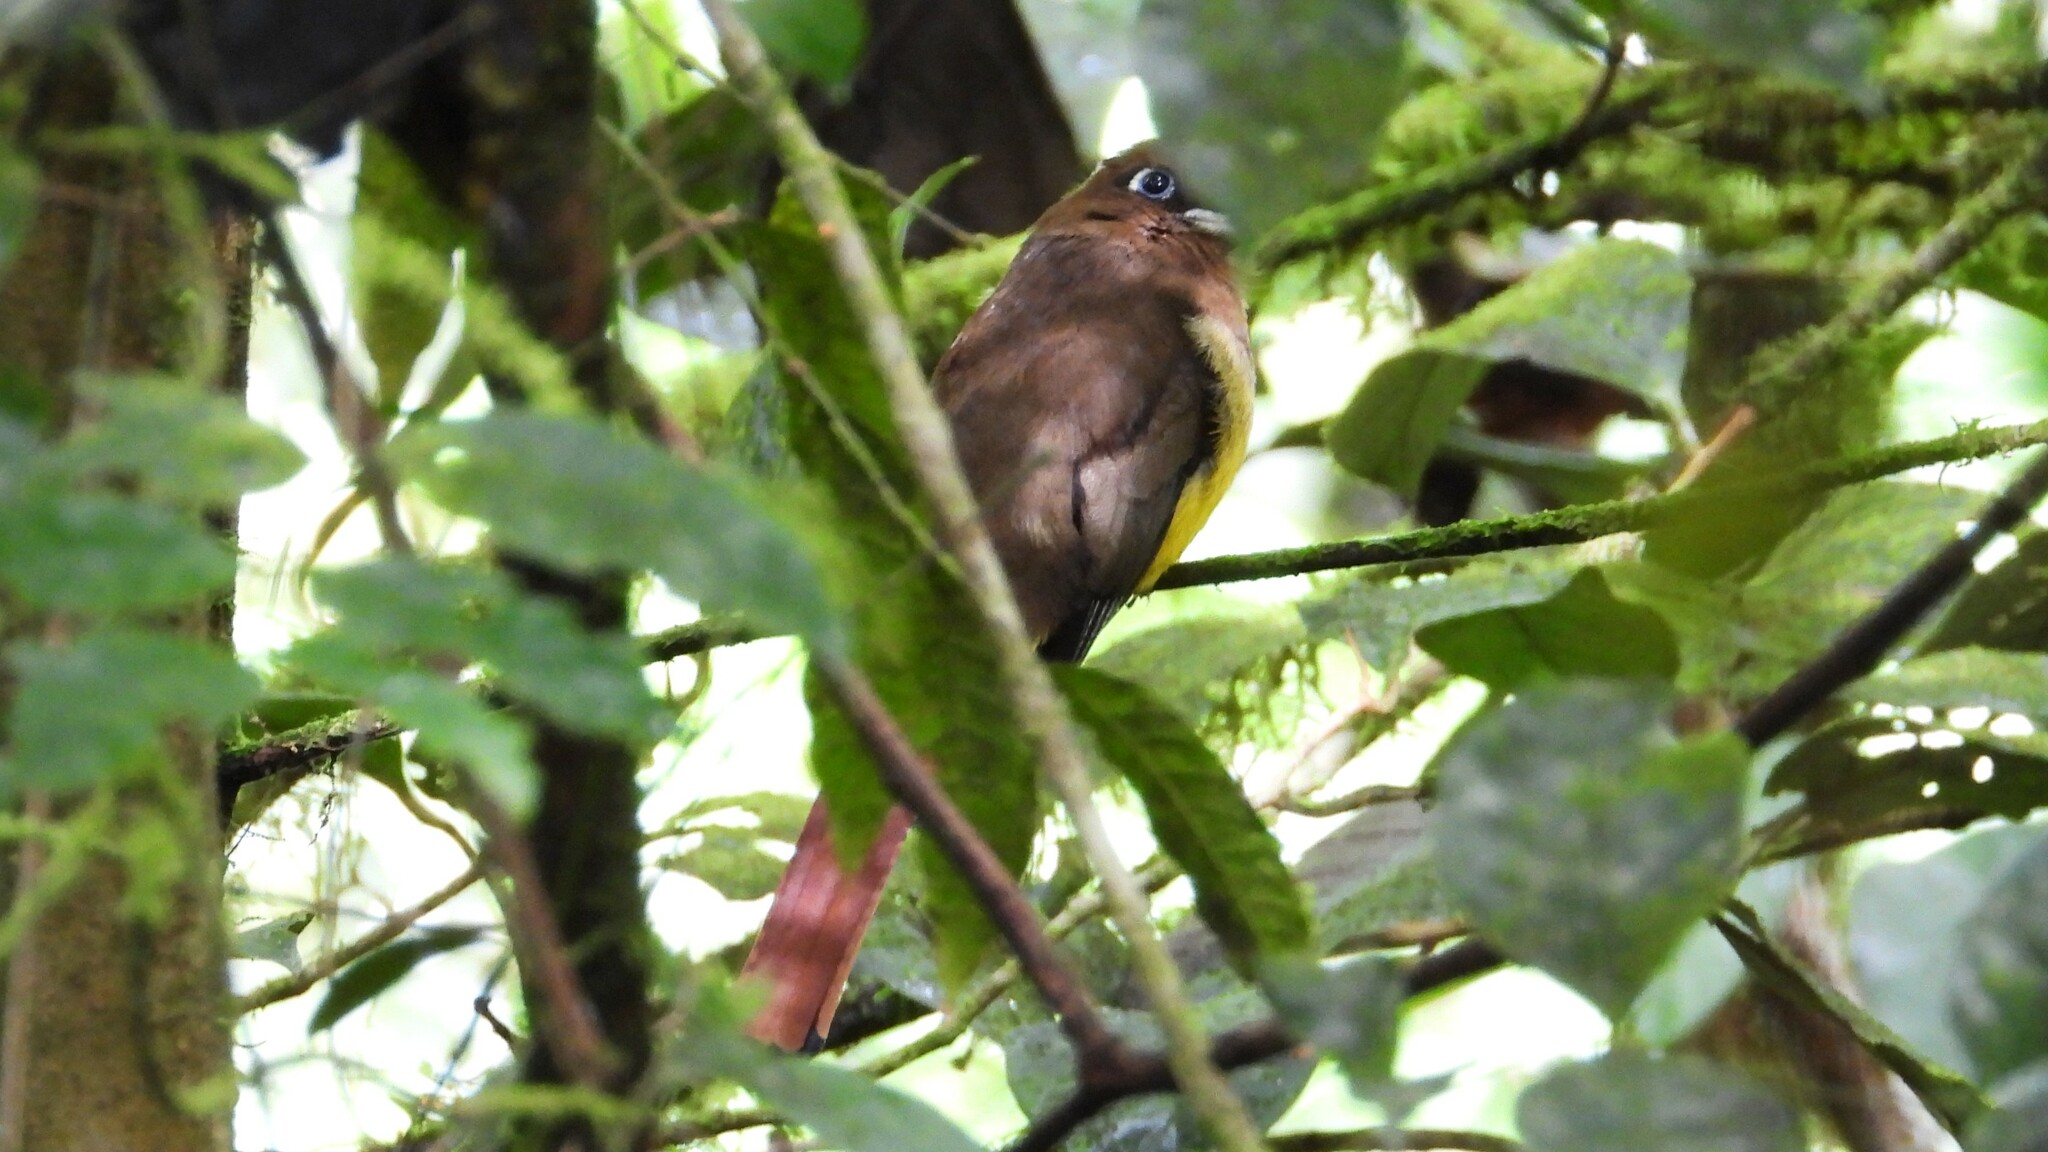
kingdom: Animalia
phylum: Chordata
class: Aves
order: Trogoniformes
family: Trogonidae
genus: Trogon
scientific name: Trogon rufus
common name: Black-throated trogon
